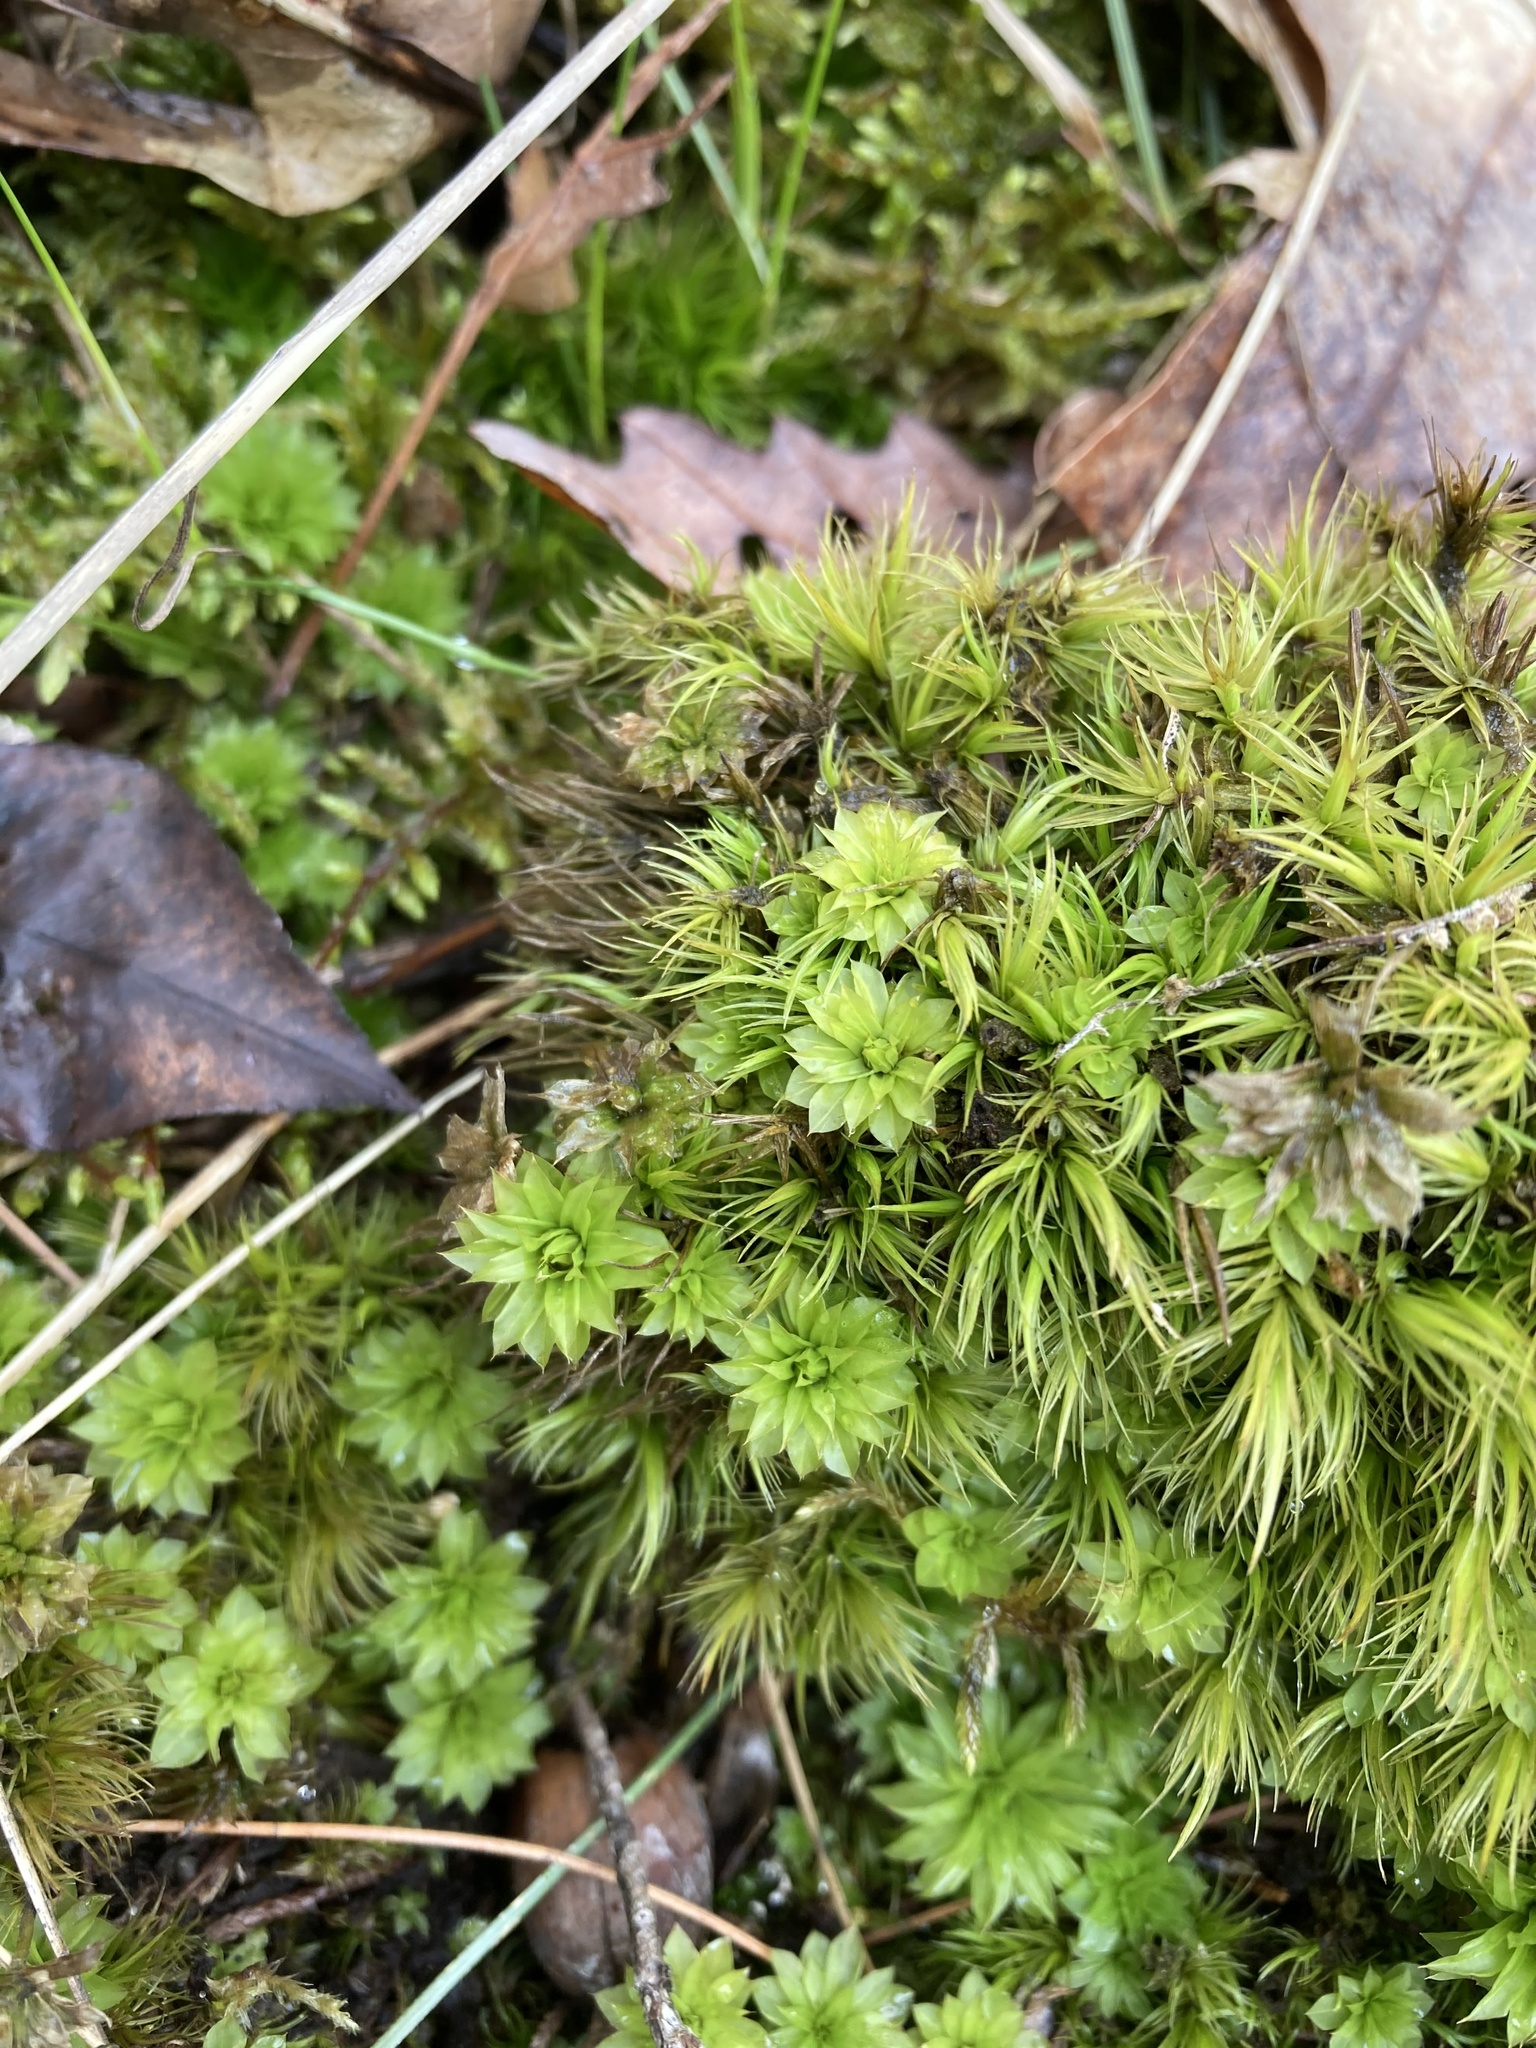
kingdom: Plantae
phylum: Bryophyta
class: Bryopsida
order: Bryales
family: Bryaceae
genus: Rhodobryum
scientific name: Rhodobryum ontariense
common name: Ontario rhodobryum moss
